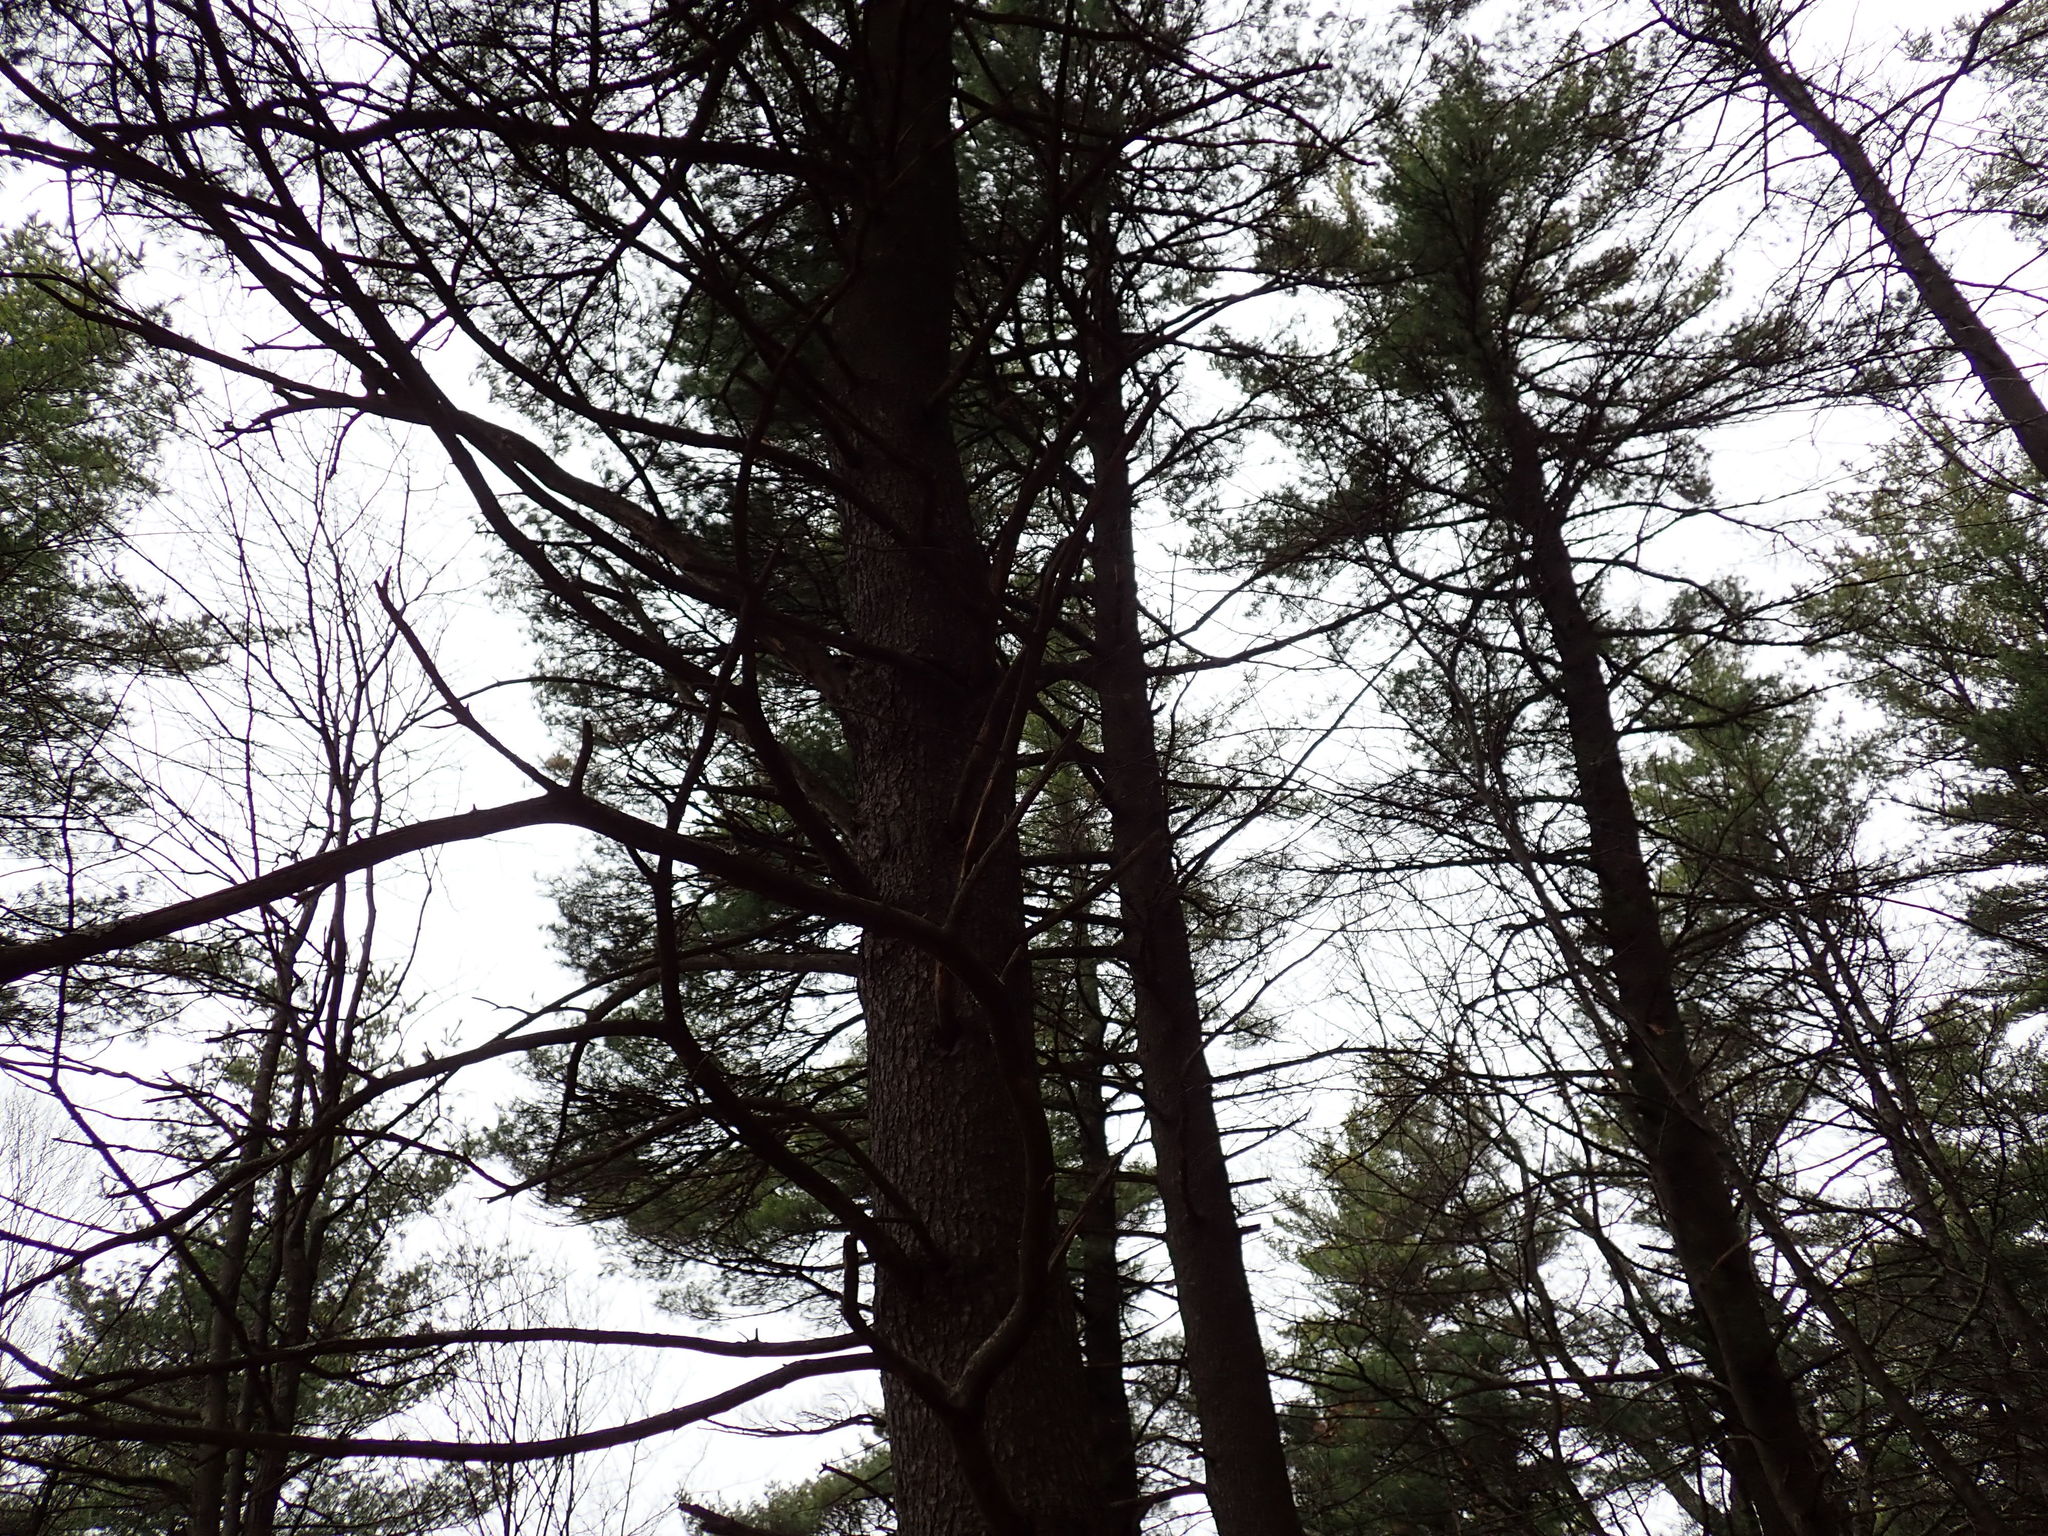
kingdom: Plantae
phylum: Tracheophyta
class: Pinopsida
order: Pinales
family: Pinaceae
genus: Pinus
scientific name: Pinus strobus
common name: Weymouth pine
